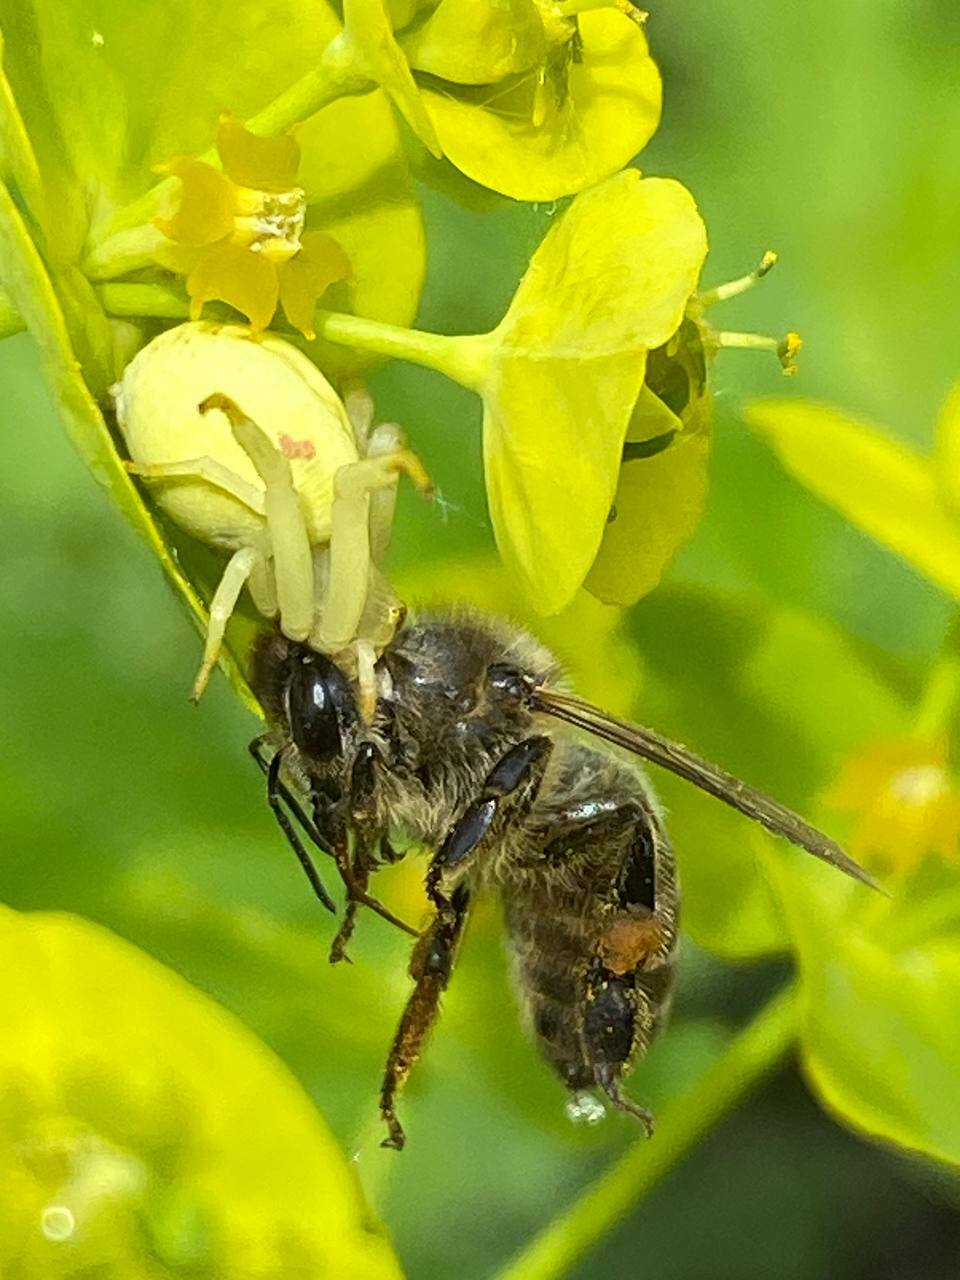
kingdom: Animalia
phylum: Arthropoda
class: Arachnida
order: Araneae
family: Thomisidae
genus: Misumena
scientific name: Misumena vatia
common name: Goldenrod crab spider
